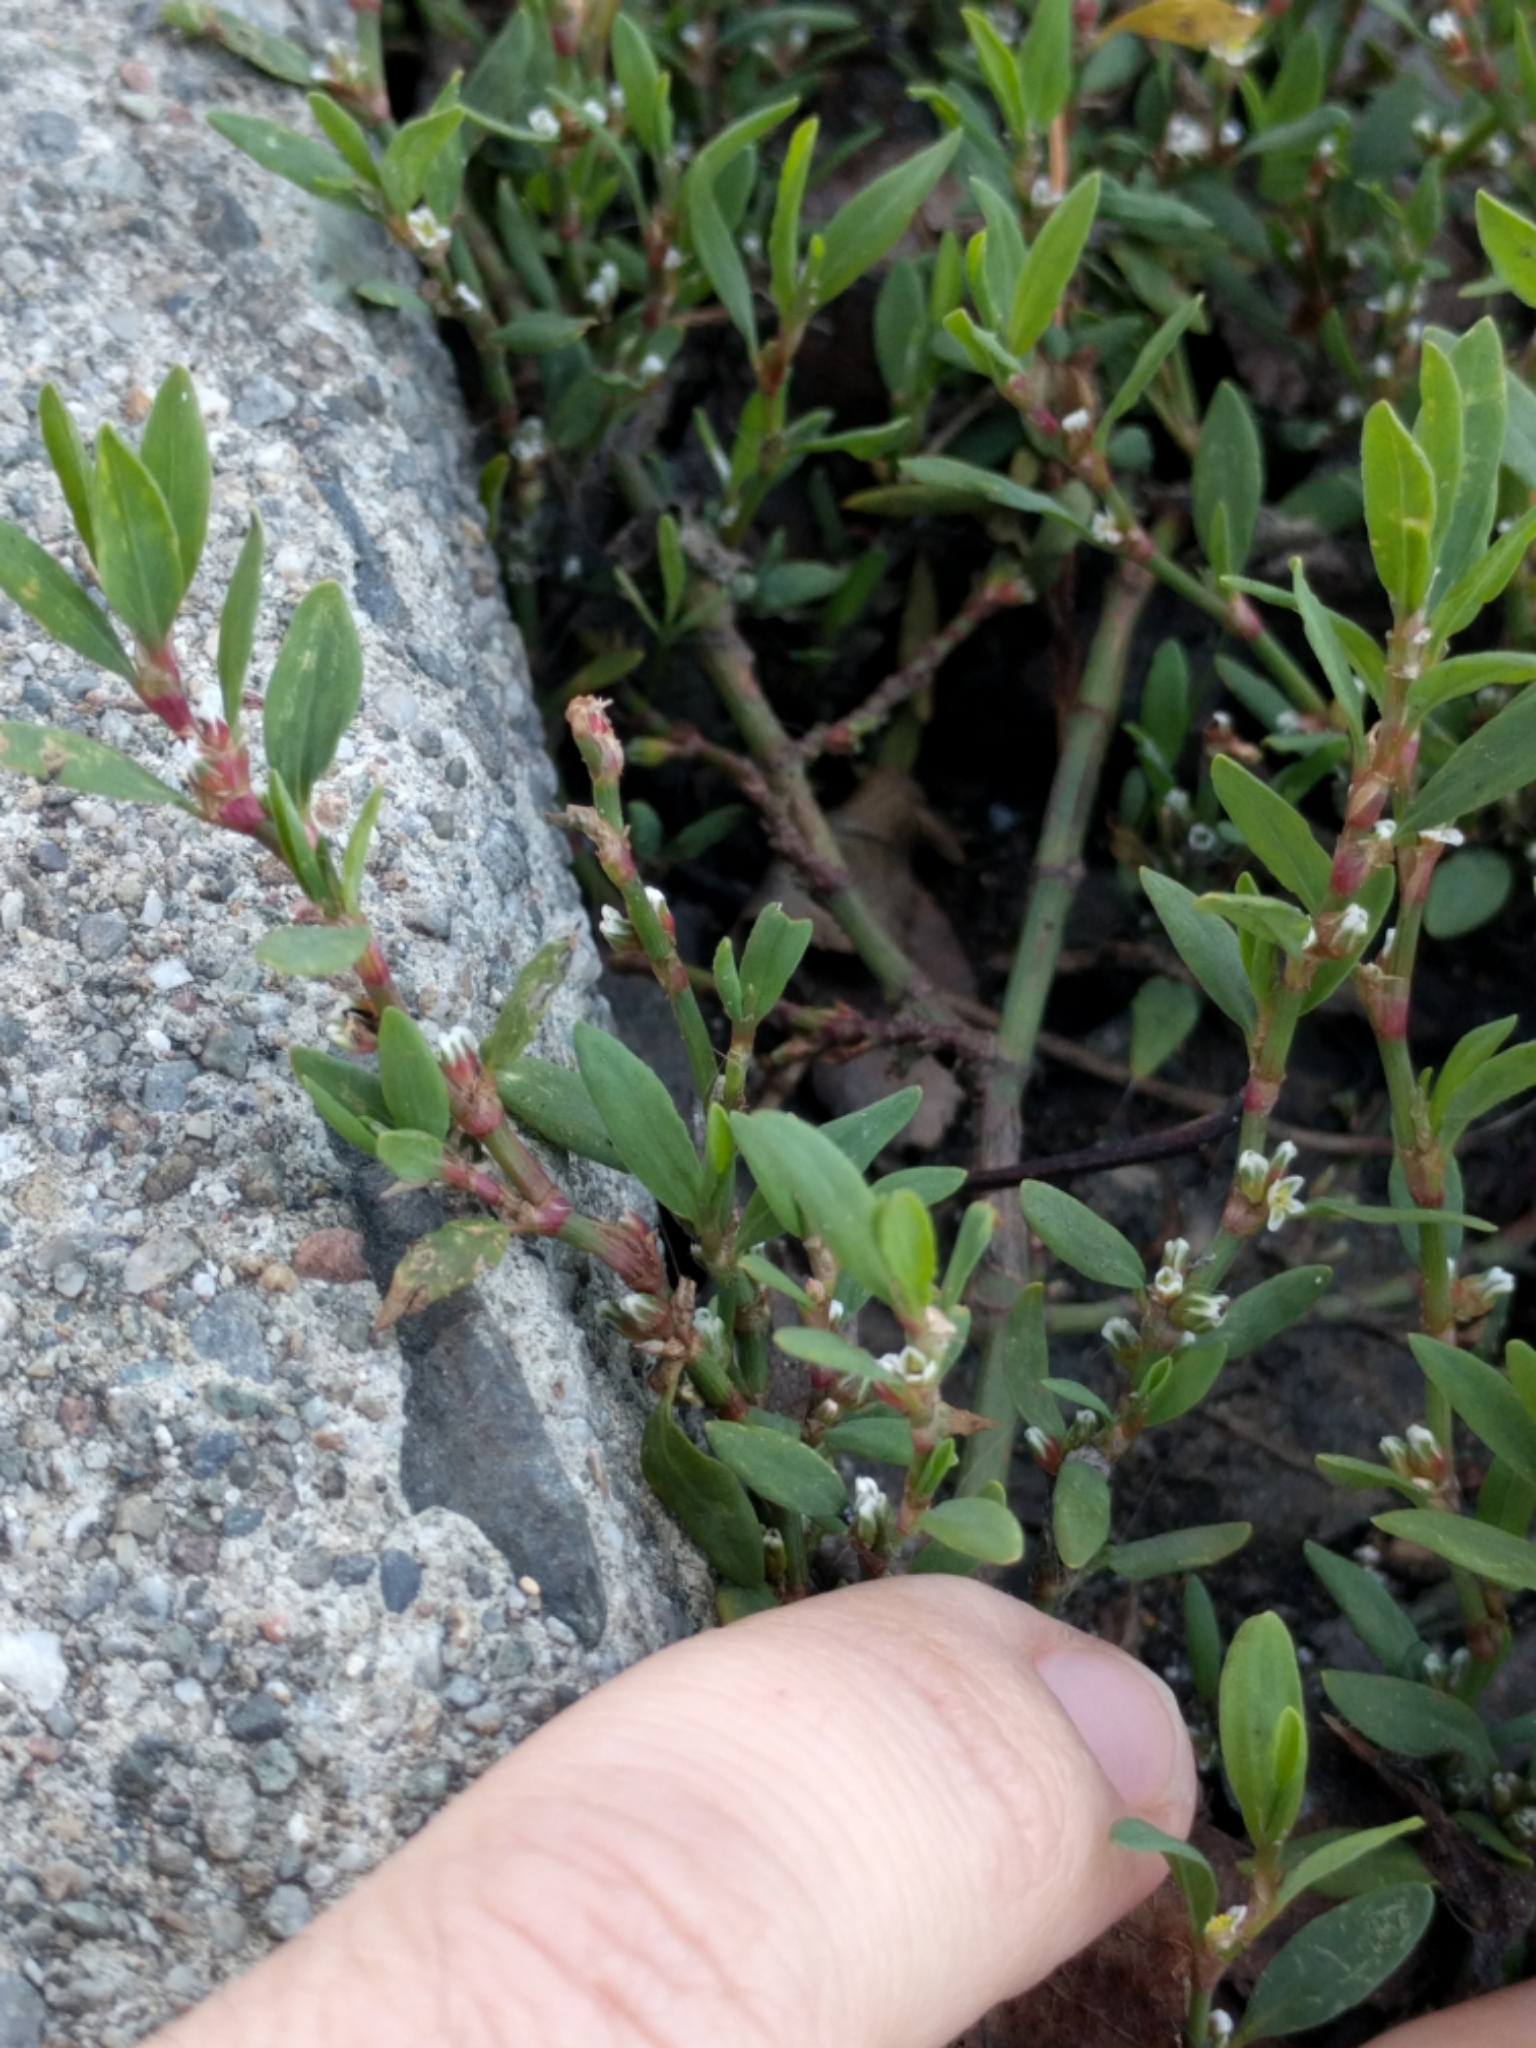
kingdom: Plantae
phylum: Tracheophyta
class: Magnoliopsida
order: Caryophyllales
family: Polygonaceae
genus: Polygonum
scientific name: Polygonum aviculare
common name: Prostrate knotweed
